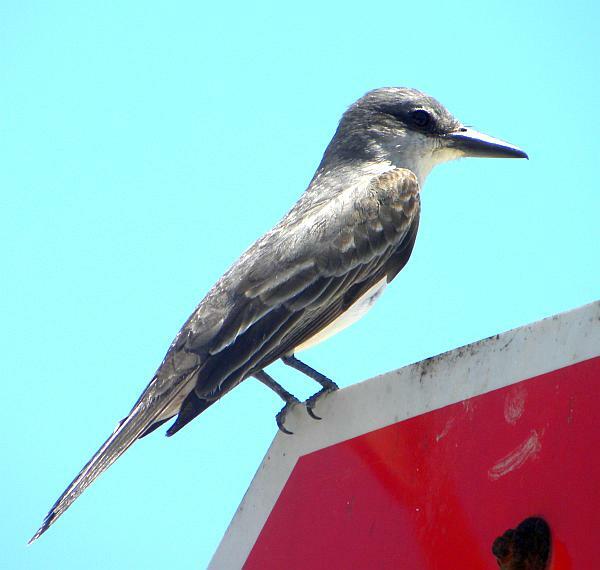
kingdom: Animalia
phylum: Chordata
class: Aves
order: Passeriformes
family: Tyrannidae
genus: Tyrannus
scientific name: Tyrannus dominicensis
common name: Gray kingbird
